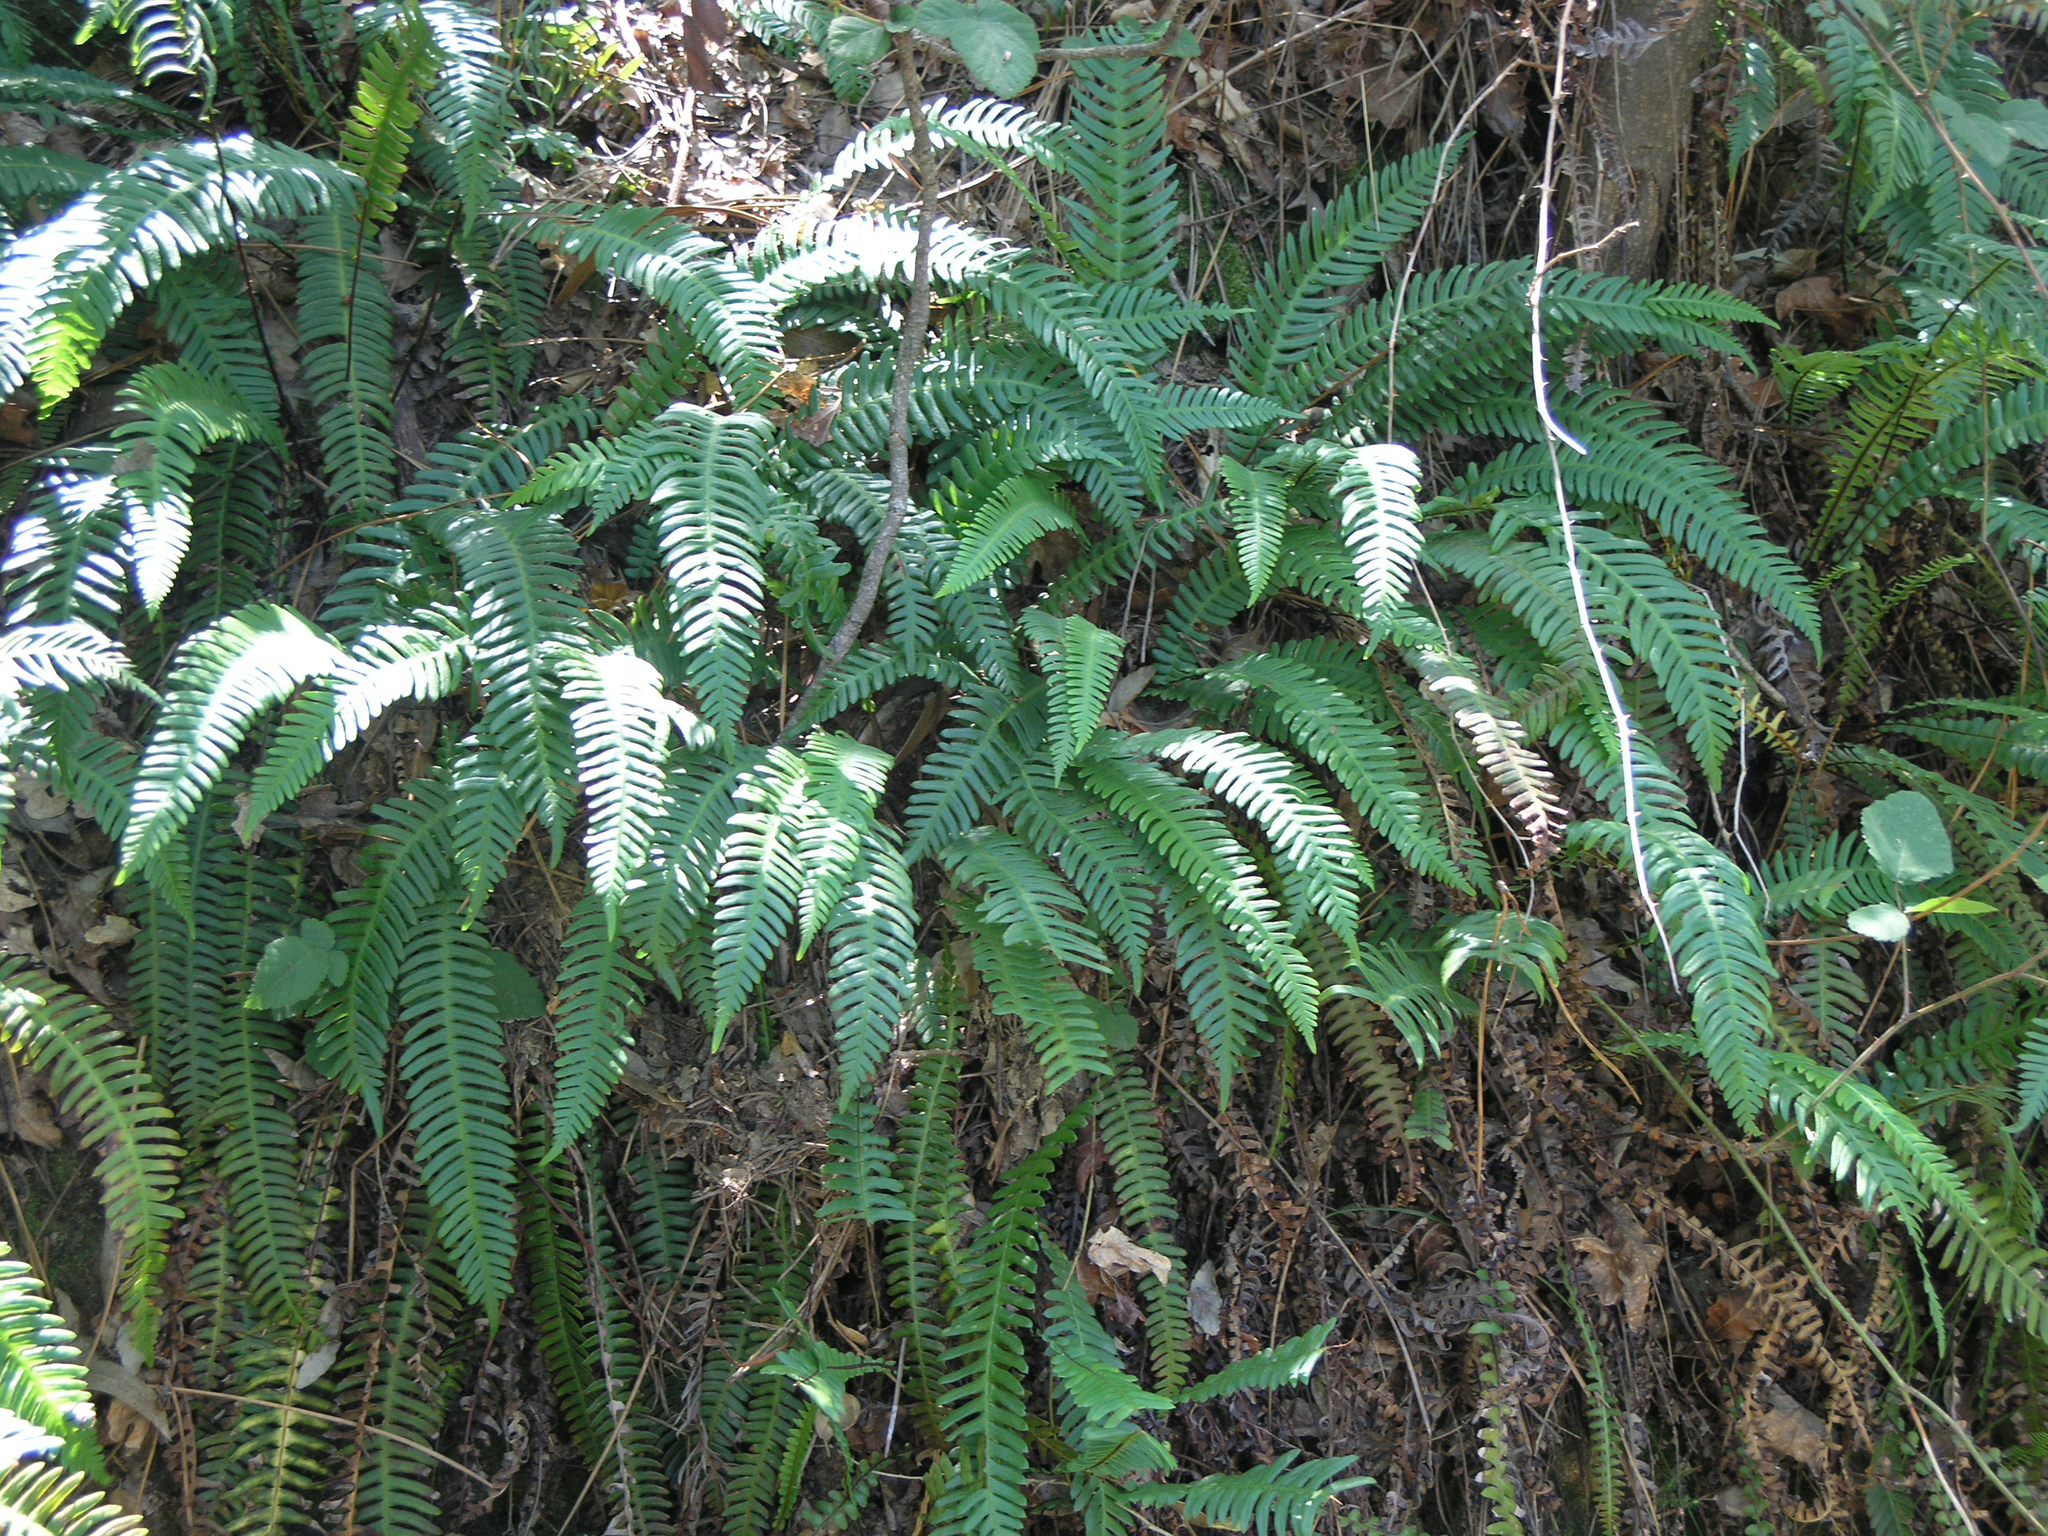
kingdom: Plantae
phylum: Tracheophyta
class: Polypodiopsida
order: Polypodiales
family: Blechnaceae
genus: Struthiopteris
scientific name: Struthiopteris spicant
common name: Deer fern
